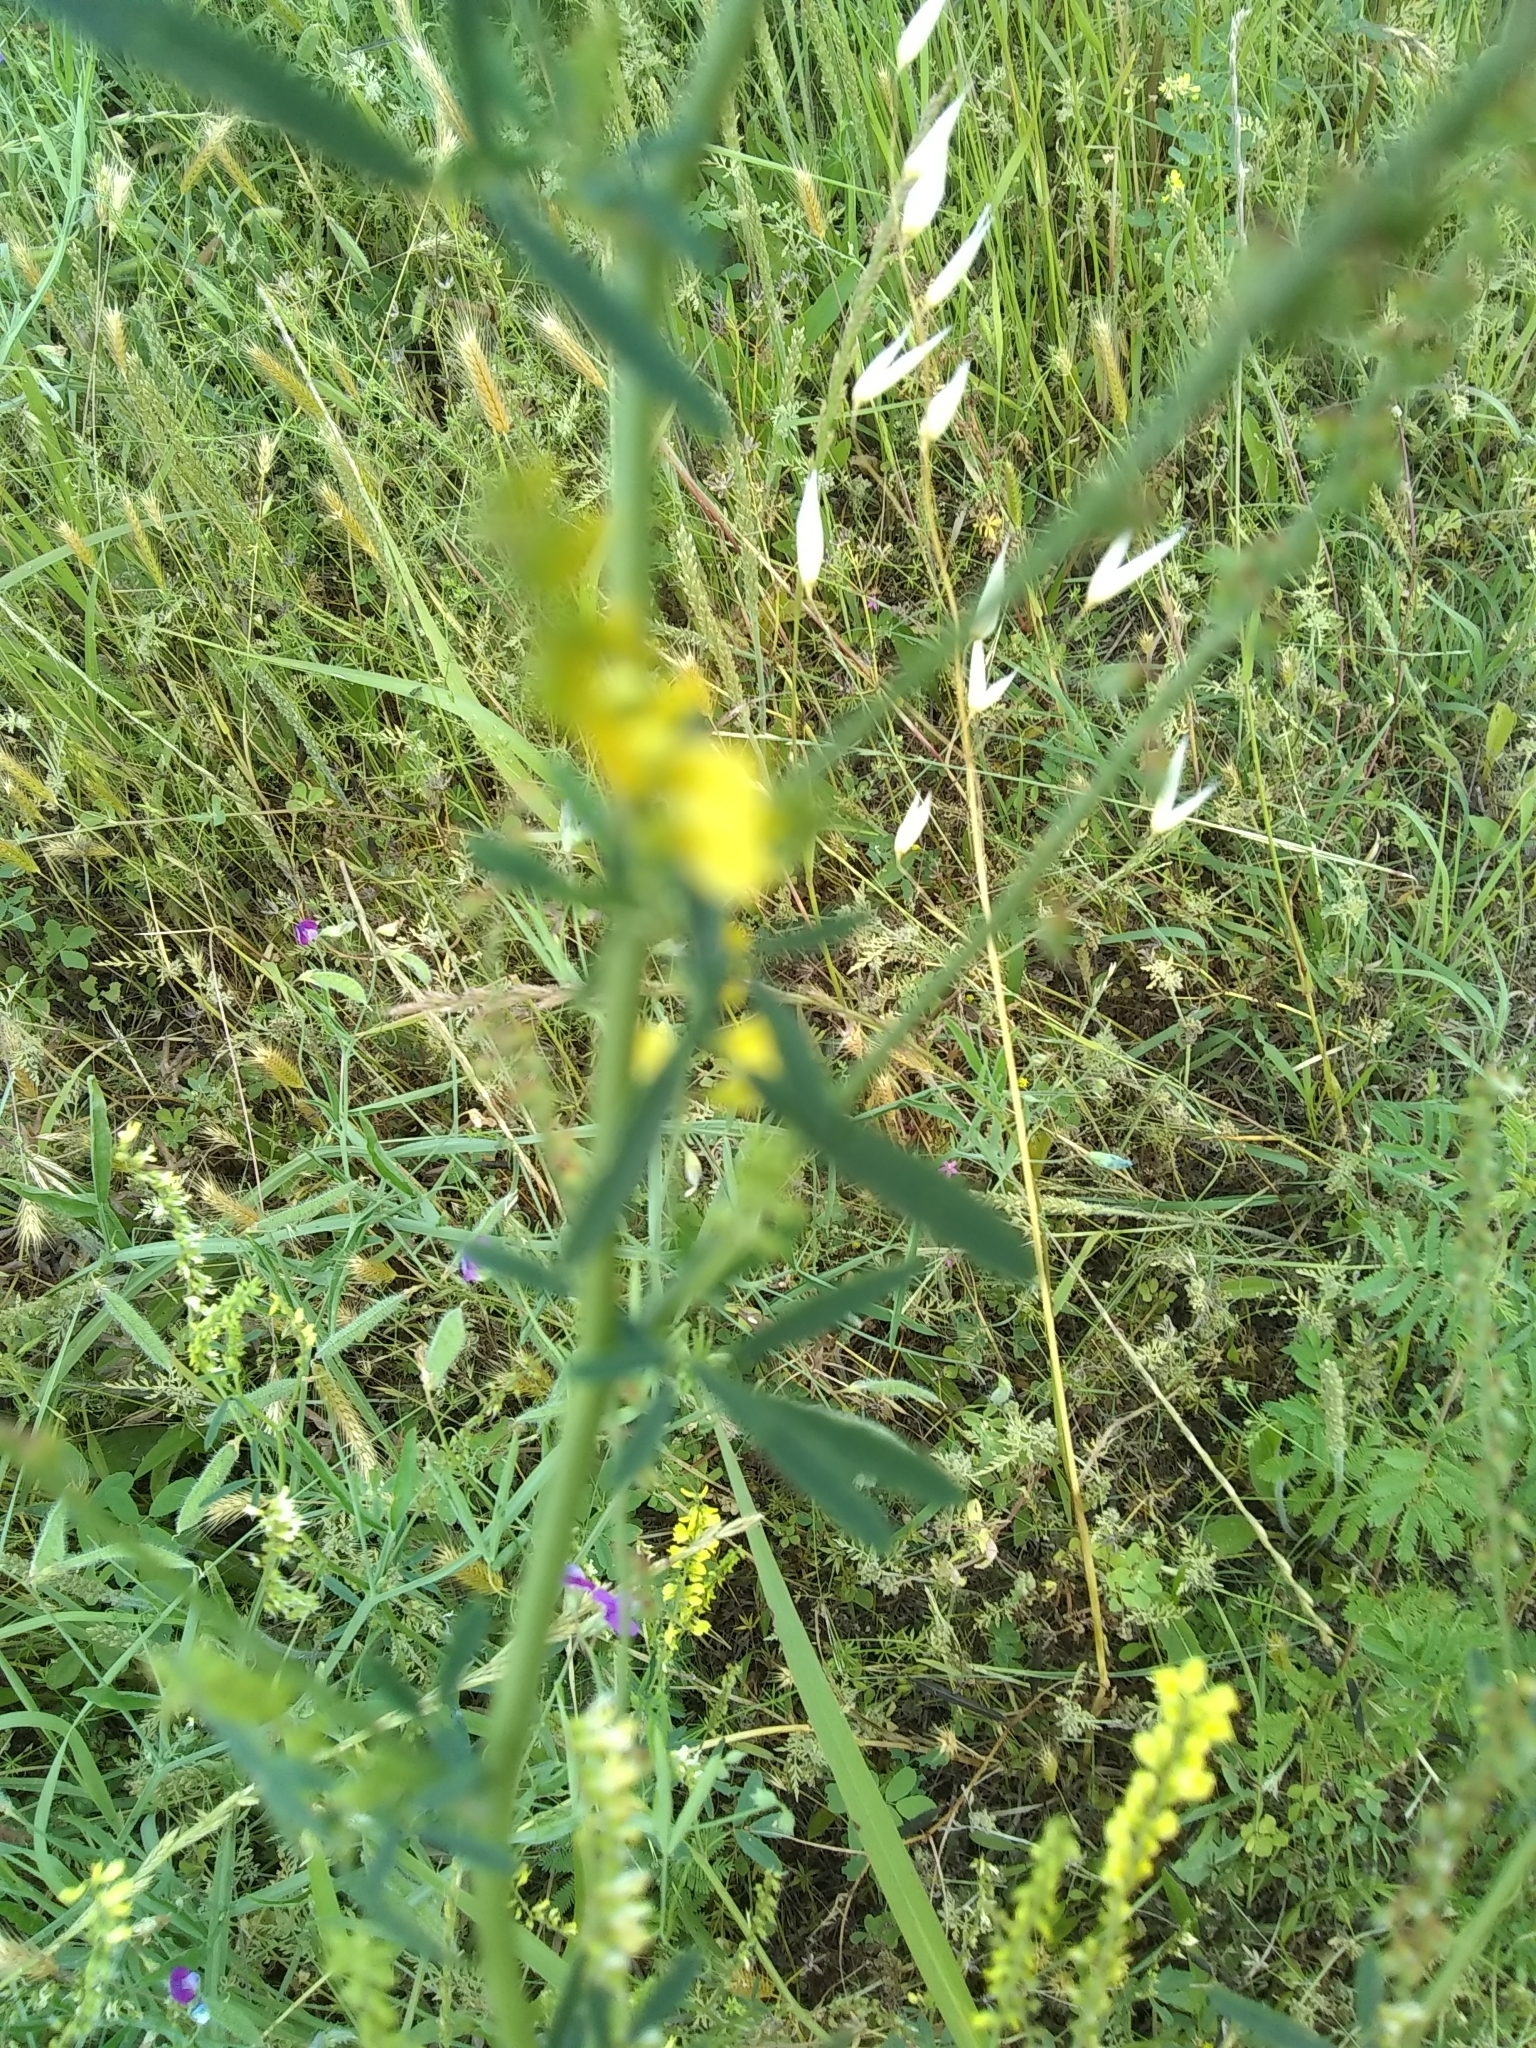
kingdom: Plantae
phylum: Tracheophyta
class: Magnoliopsida
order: Fabales
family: Fabaceae
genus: Melilotus
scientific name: Melilotus officinalis
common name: Sweetclover
